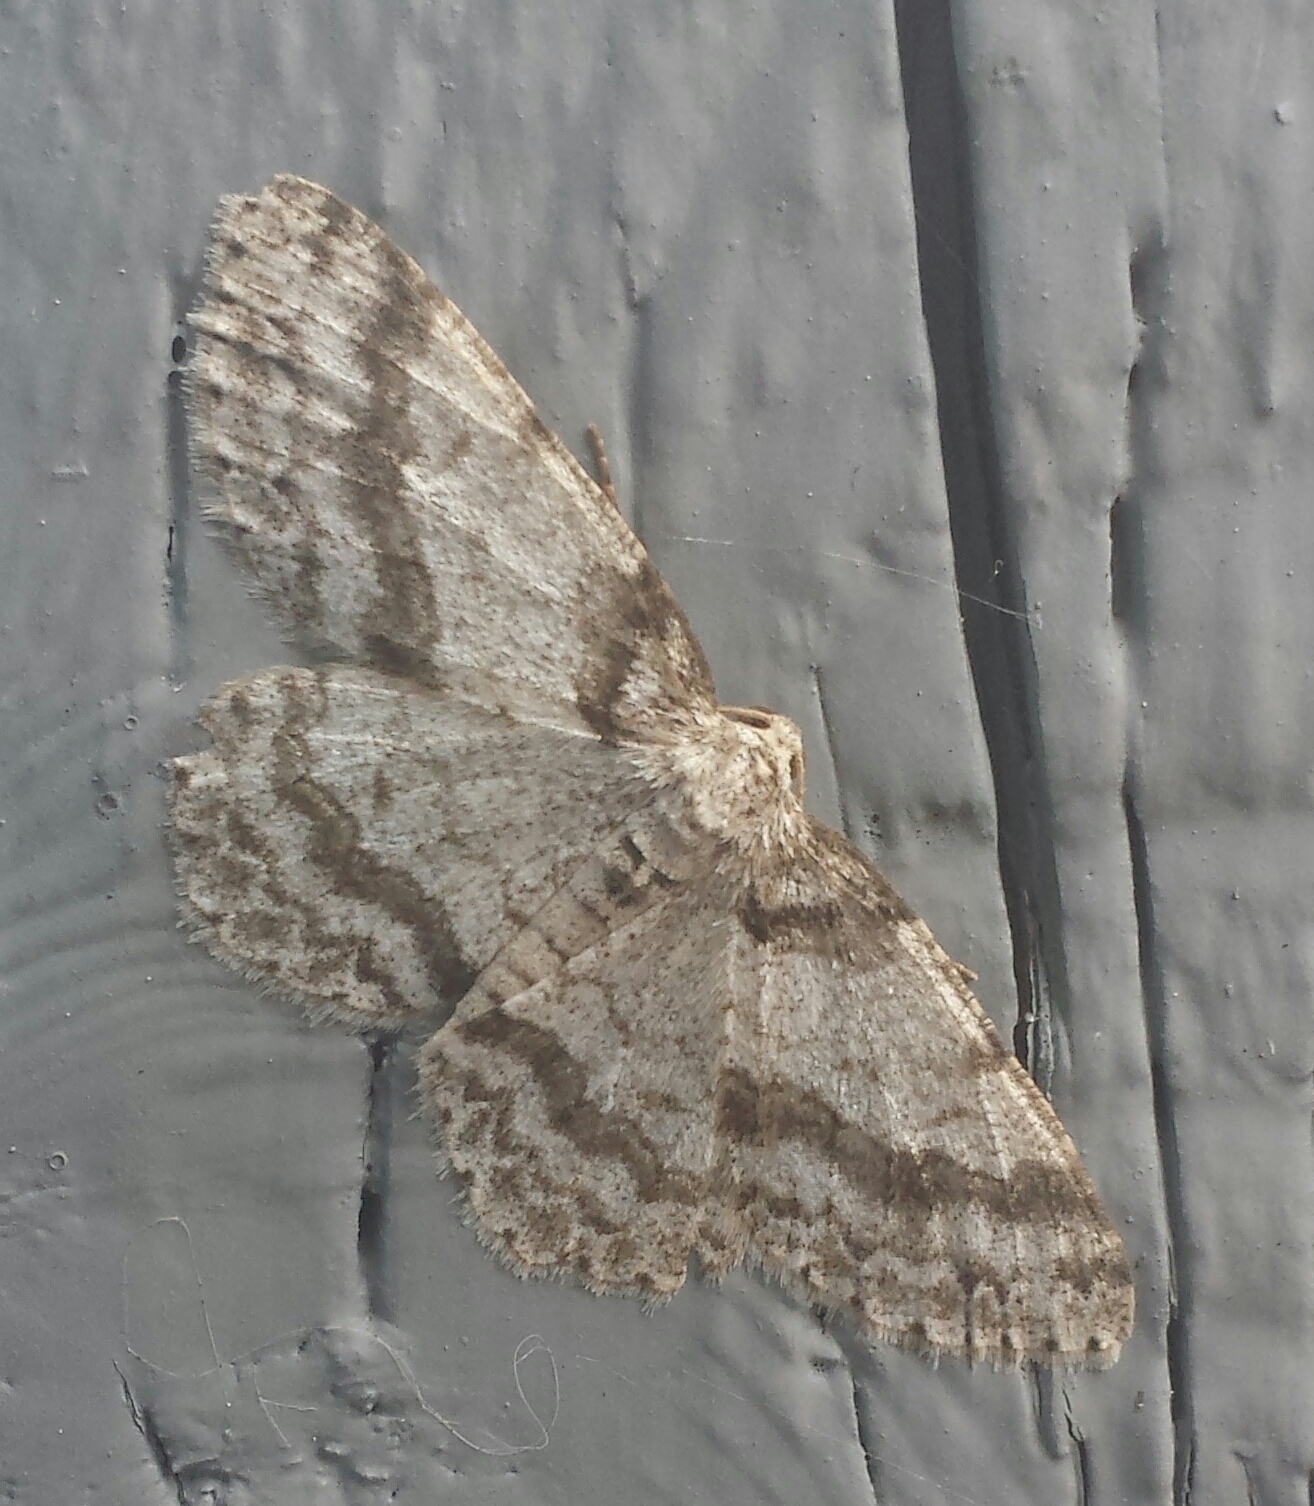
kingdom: Animalia
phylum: Arthropoda
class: Insecta
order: Lepidoptera
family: Geometridae
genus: Ectropis
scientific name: Ectropis crepuscularia
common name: Engrailed
